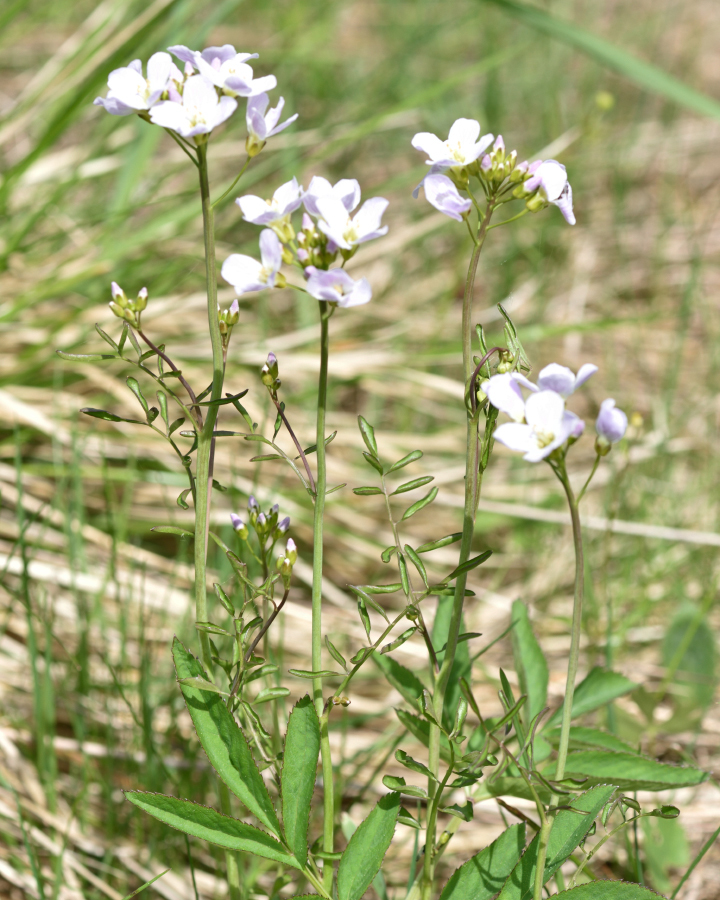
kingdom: Plantae
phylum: Tracheophyta
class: Magnoliopsida
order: Brassicales
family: Brassicaceae
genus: Cardamine
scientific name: Cardamine dentata
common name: Toothed bittercress
